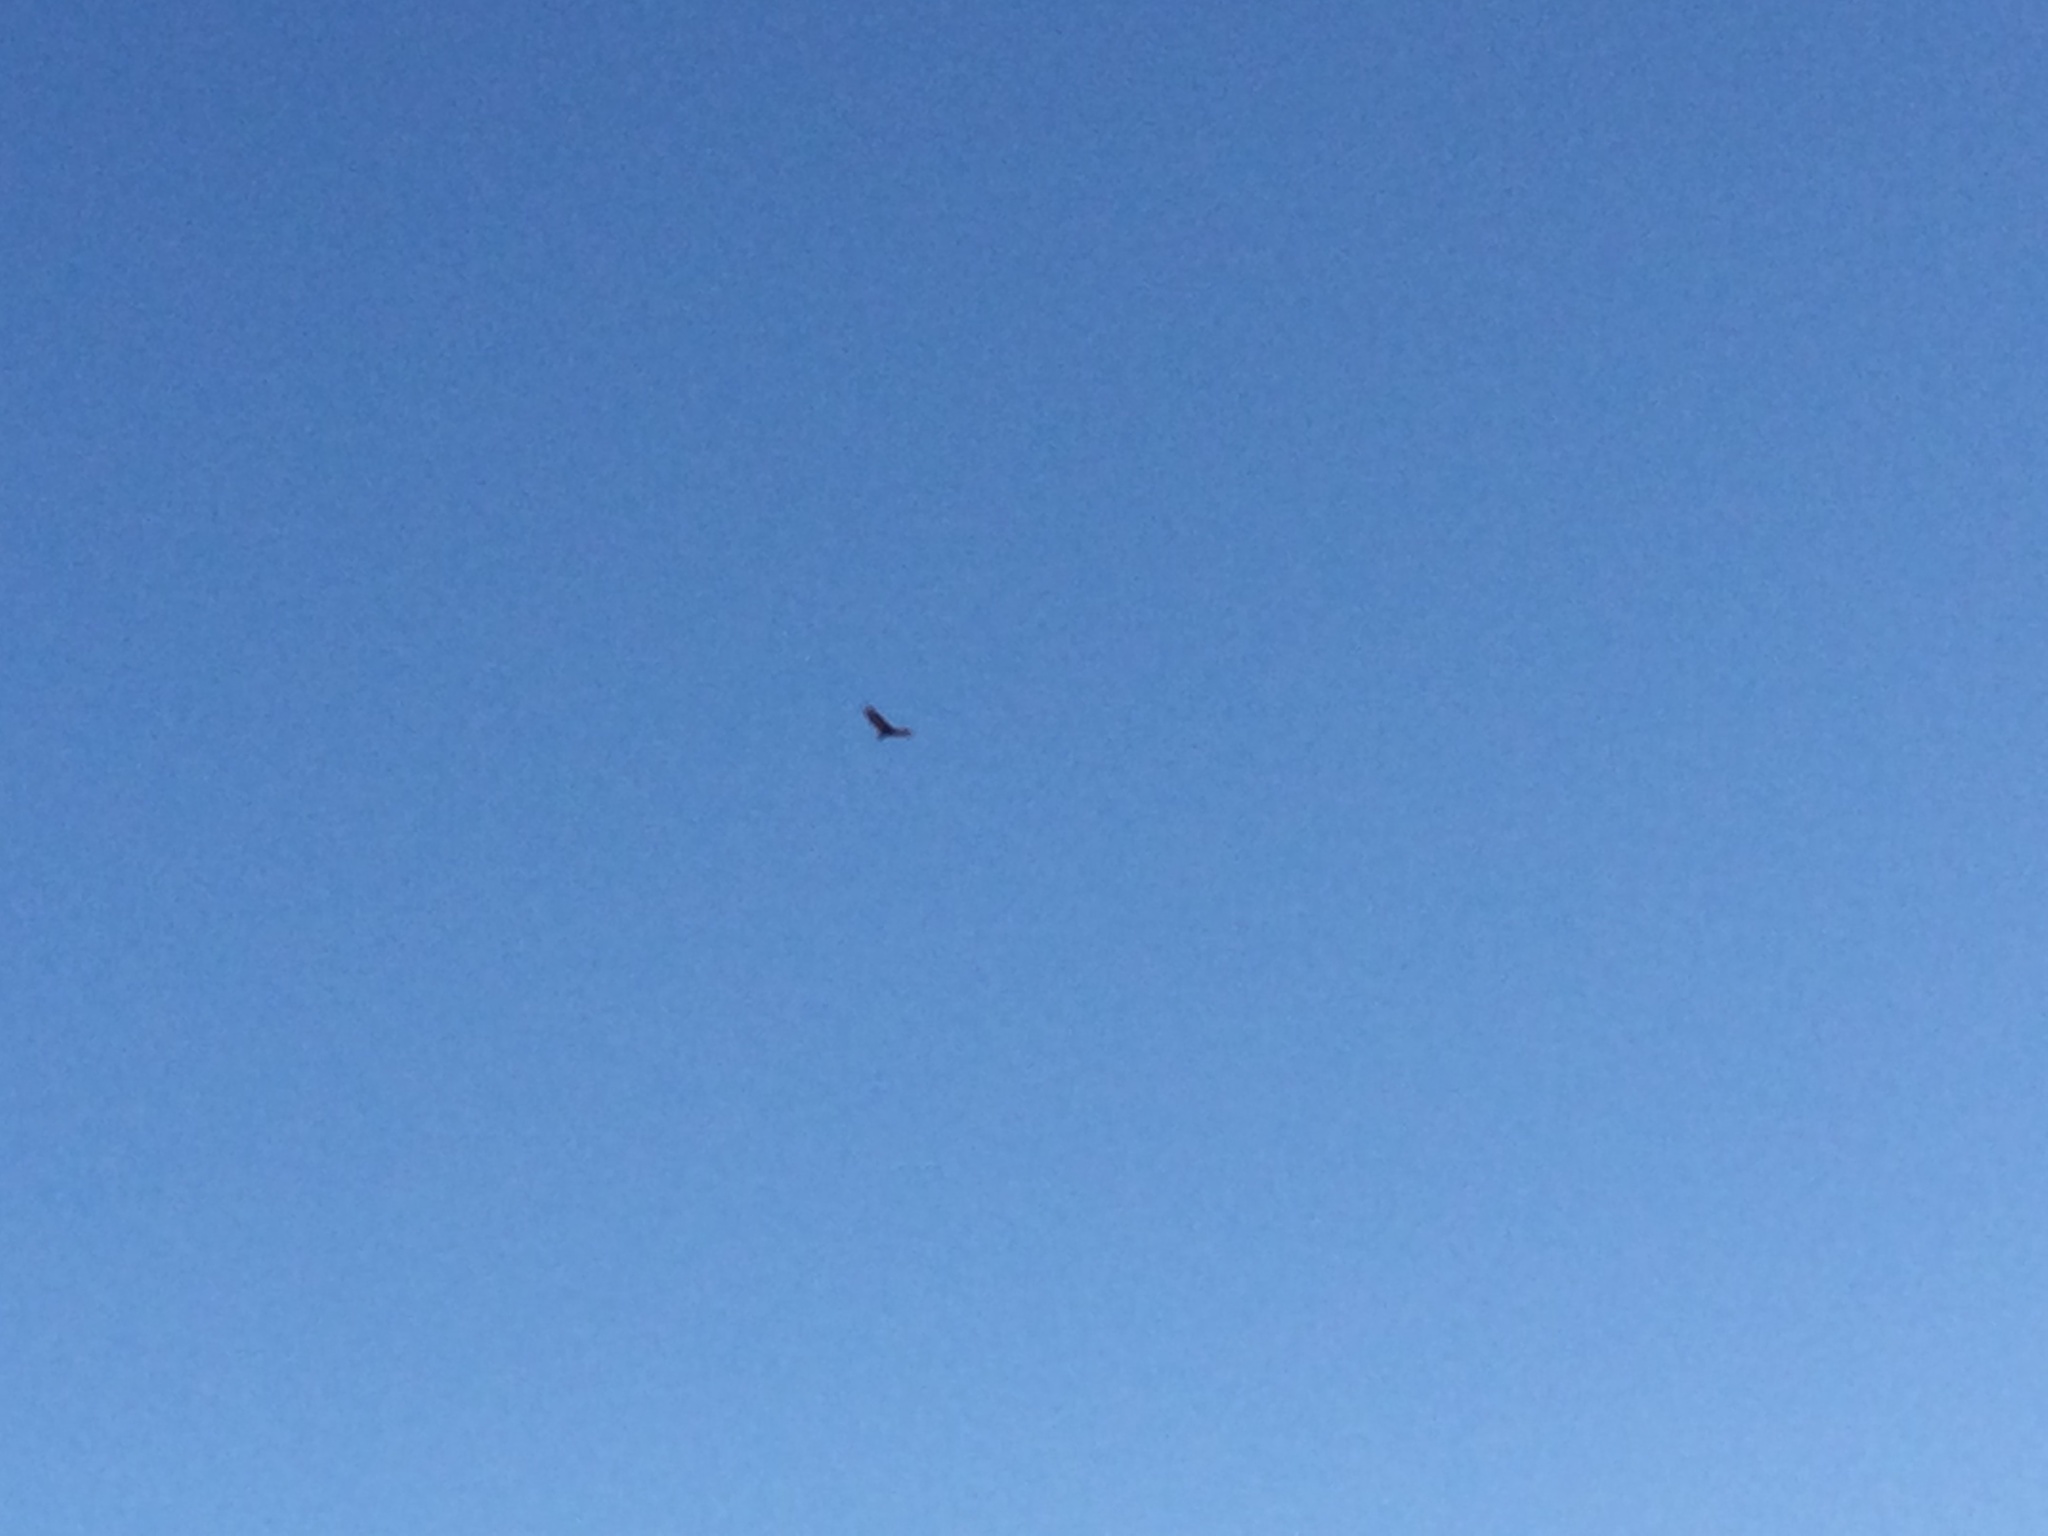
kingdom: Animalia
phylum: Chordata
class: Aves
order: Accipitriformes
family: Cathartidae
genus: Cathartes
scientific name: Cathartes aura
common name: Turkey vulture
